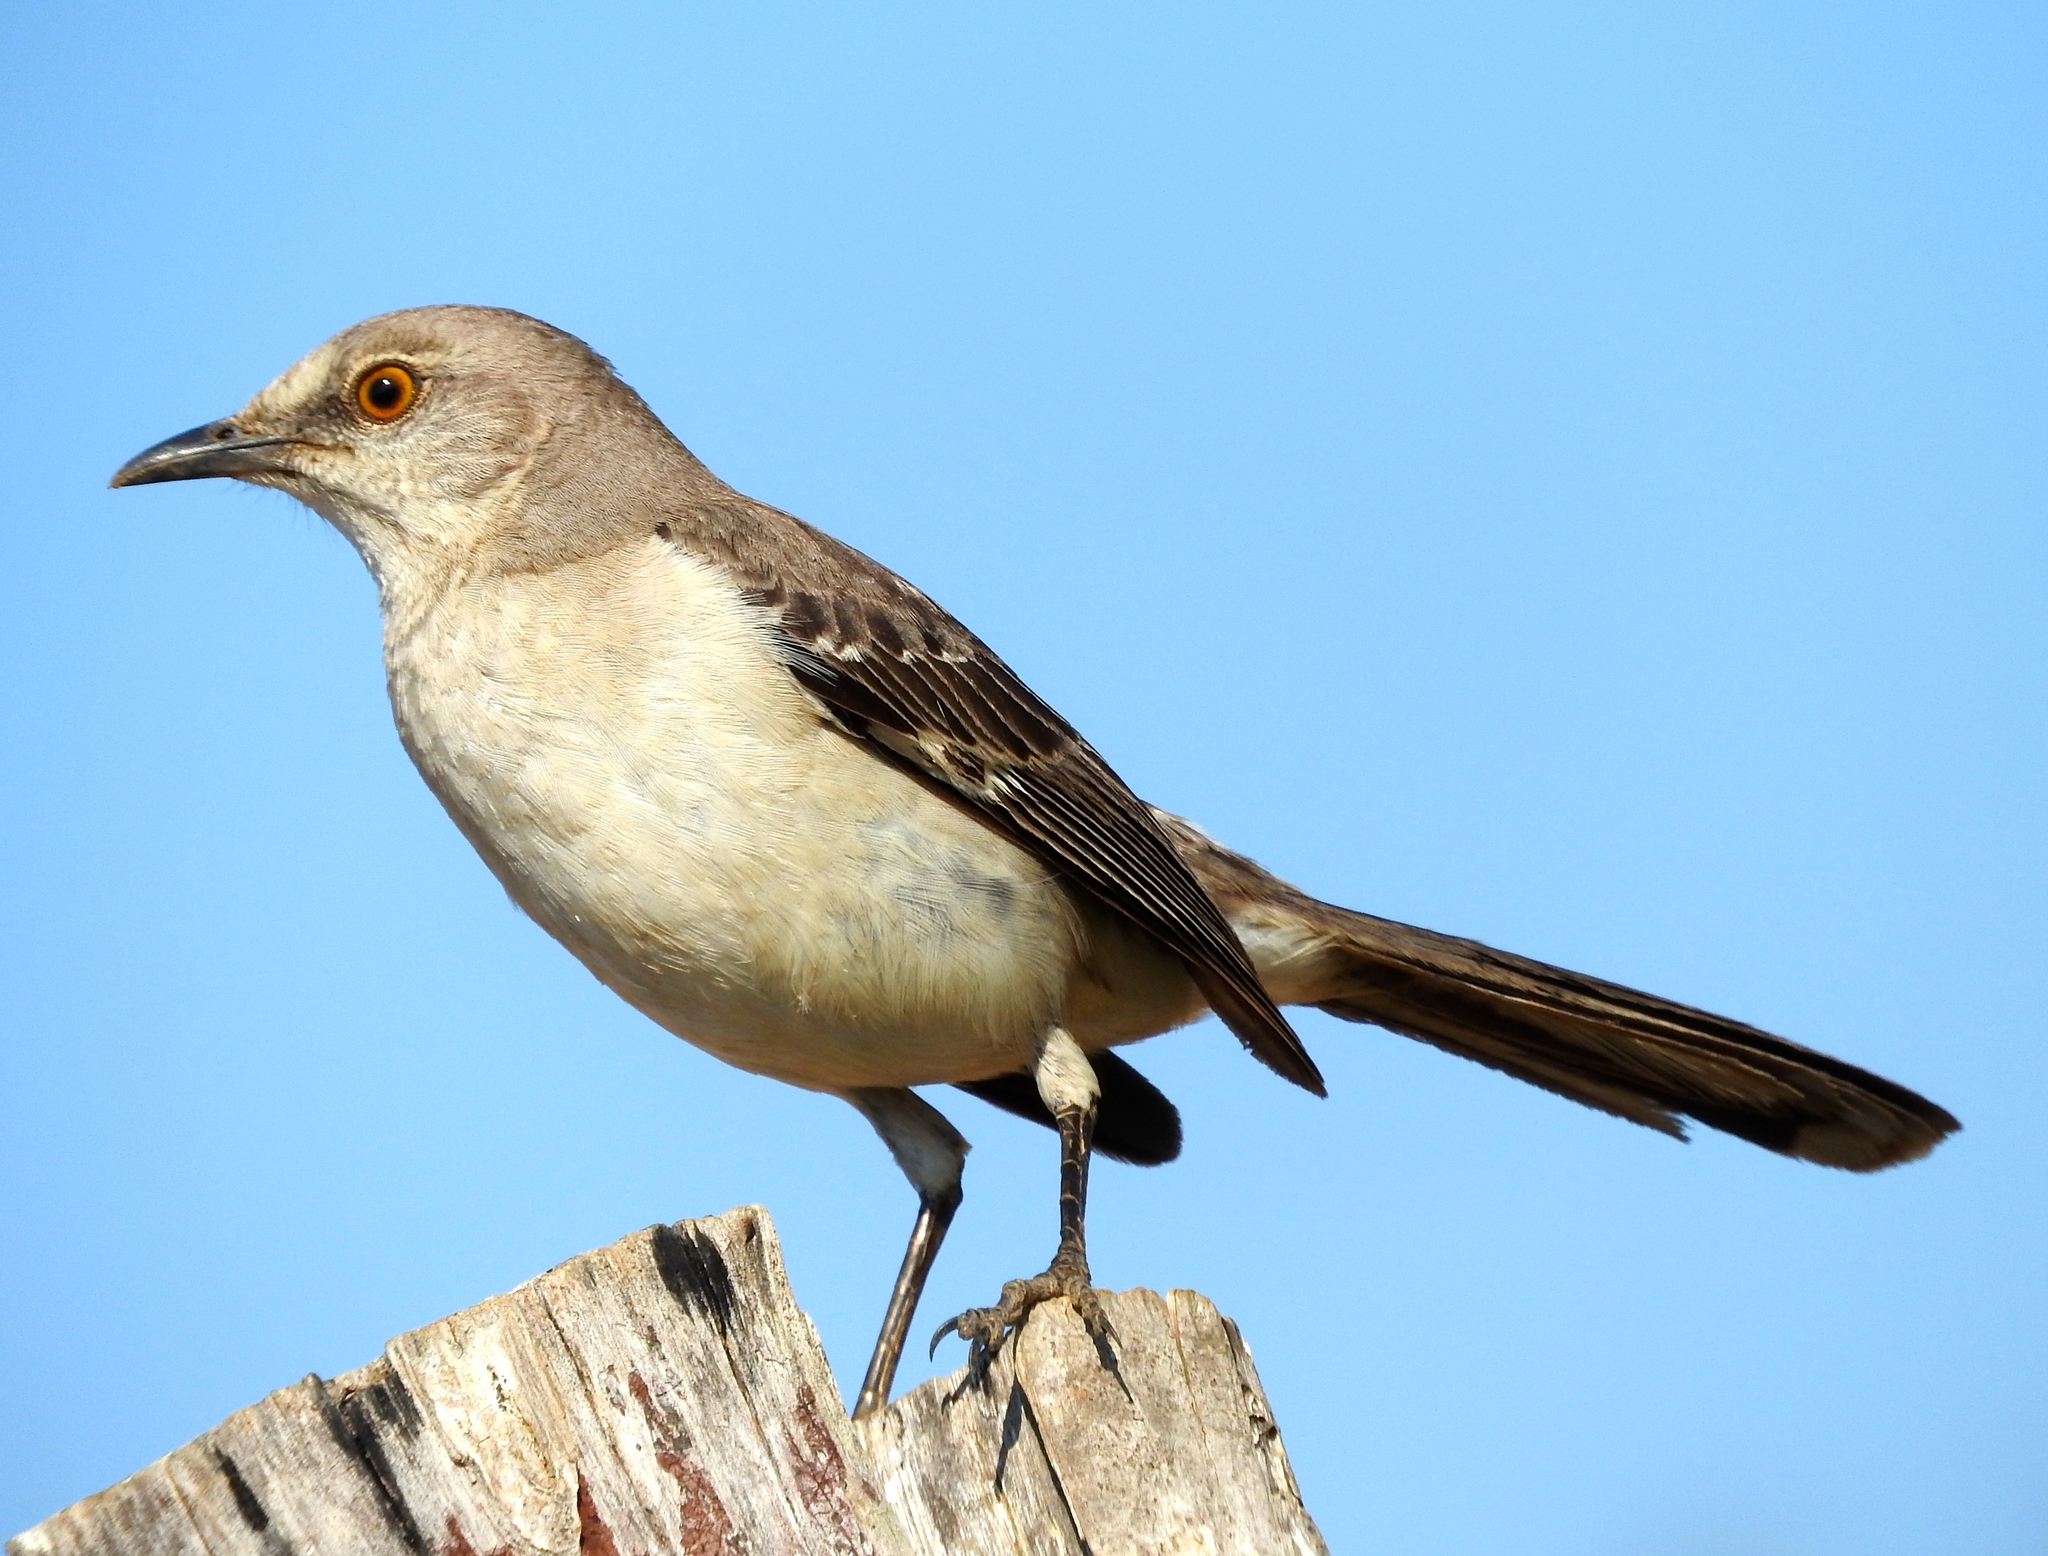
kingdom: Animalia
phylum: Chordata
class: Aves
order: Passeriformes
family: Mimidae
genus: Mimus
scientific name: Mimus polyglottos
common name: Northern mockingbird
